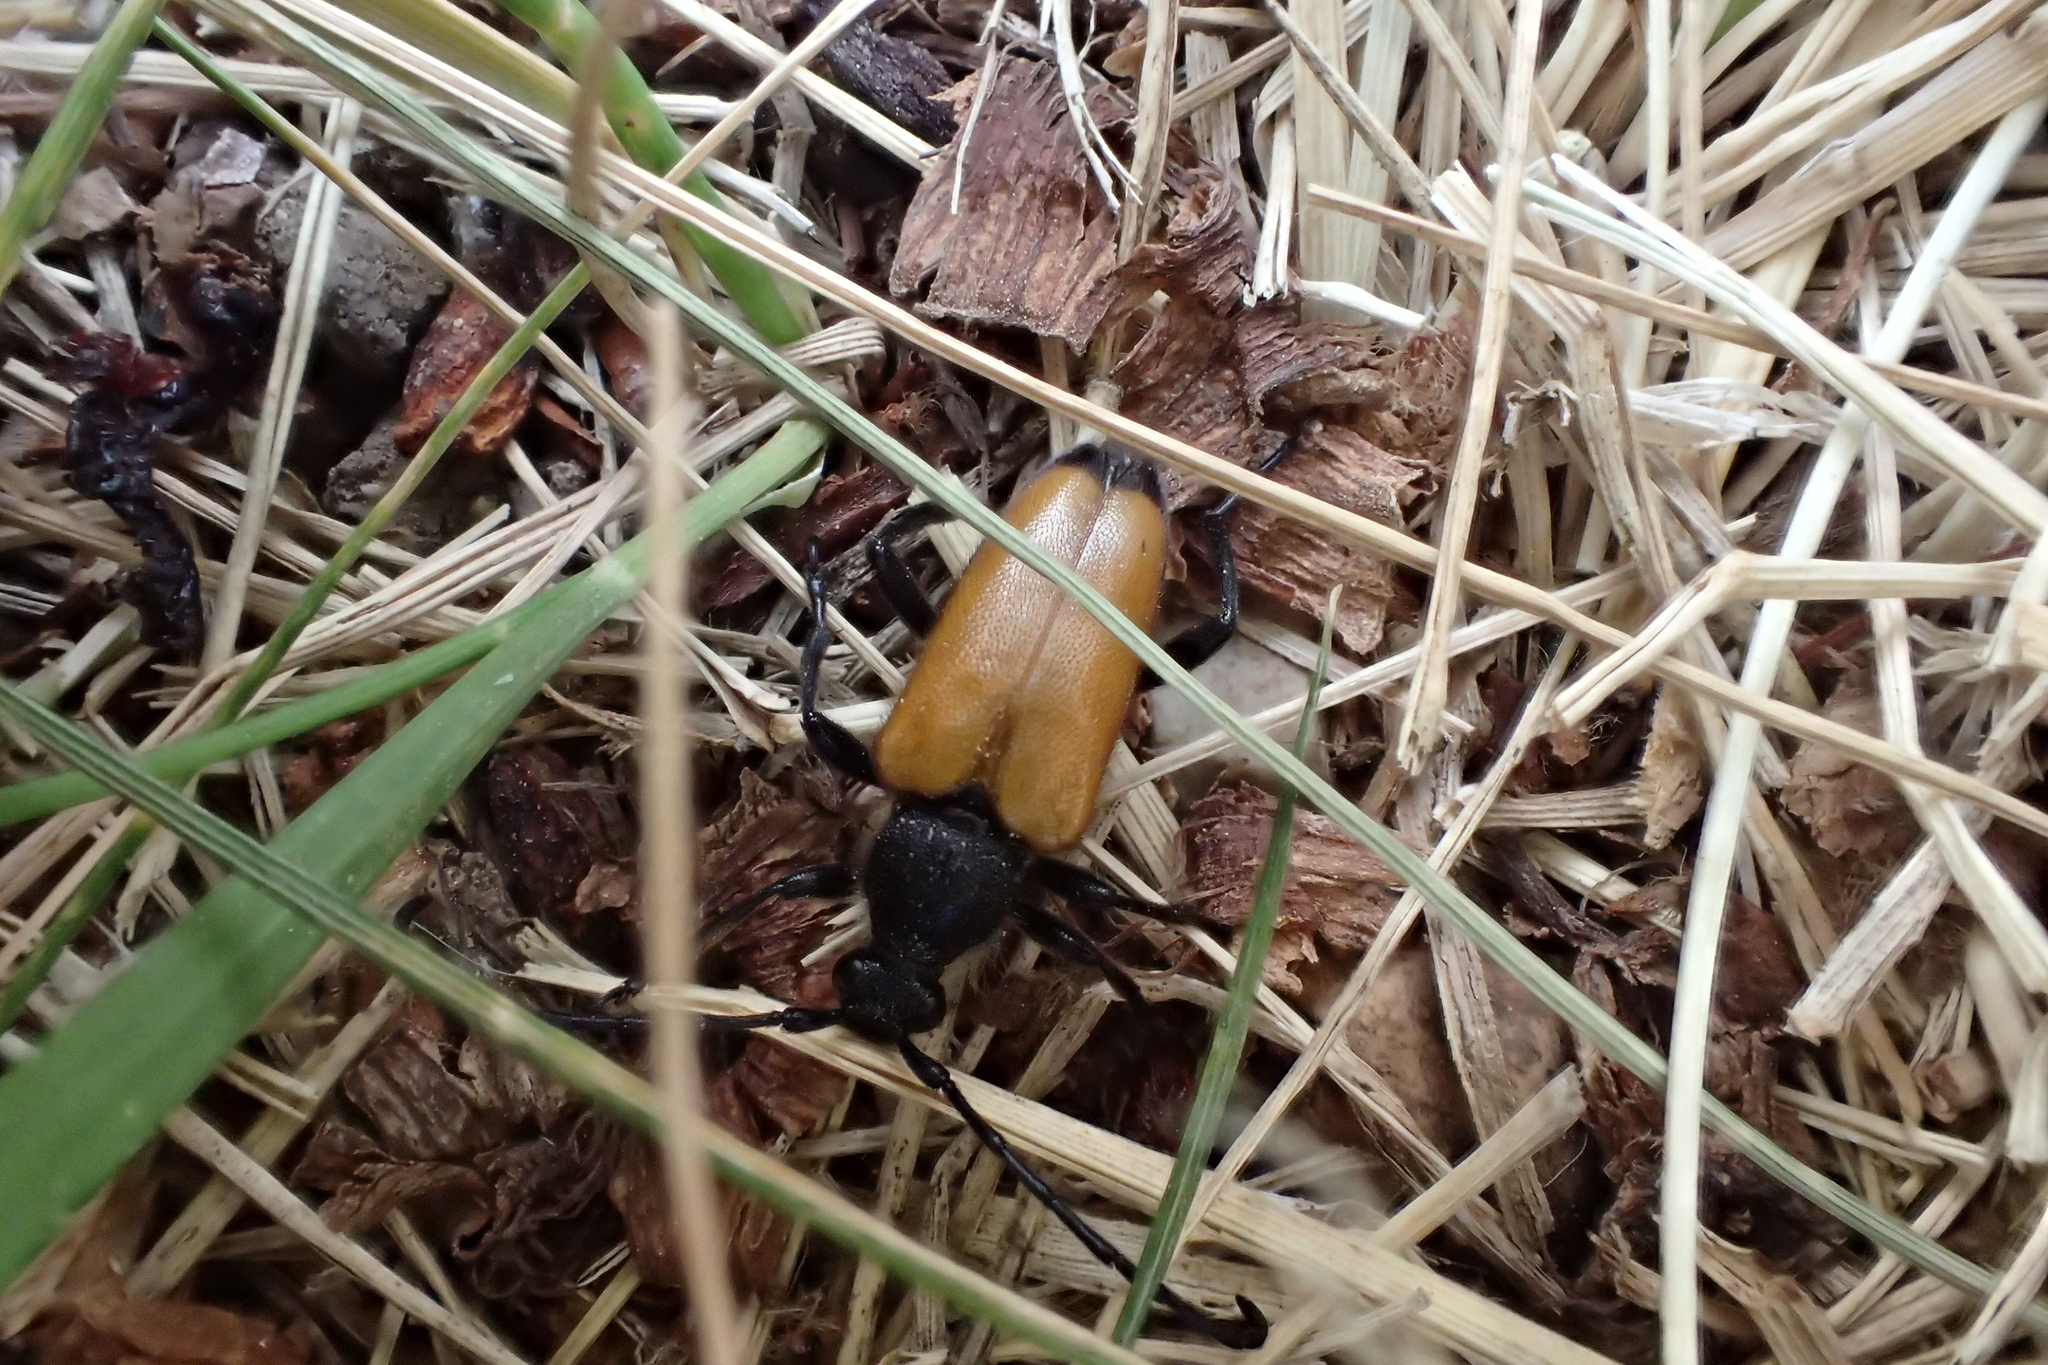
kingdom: Animalia
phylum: Arthropoda
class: Insecta
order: Coleoptera
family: Cerambycidae
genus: Paracorymbia
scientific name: Paracorymbia fulva
